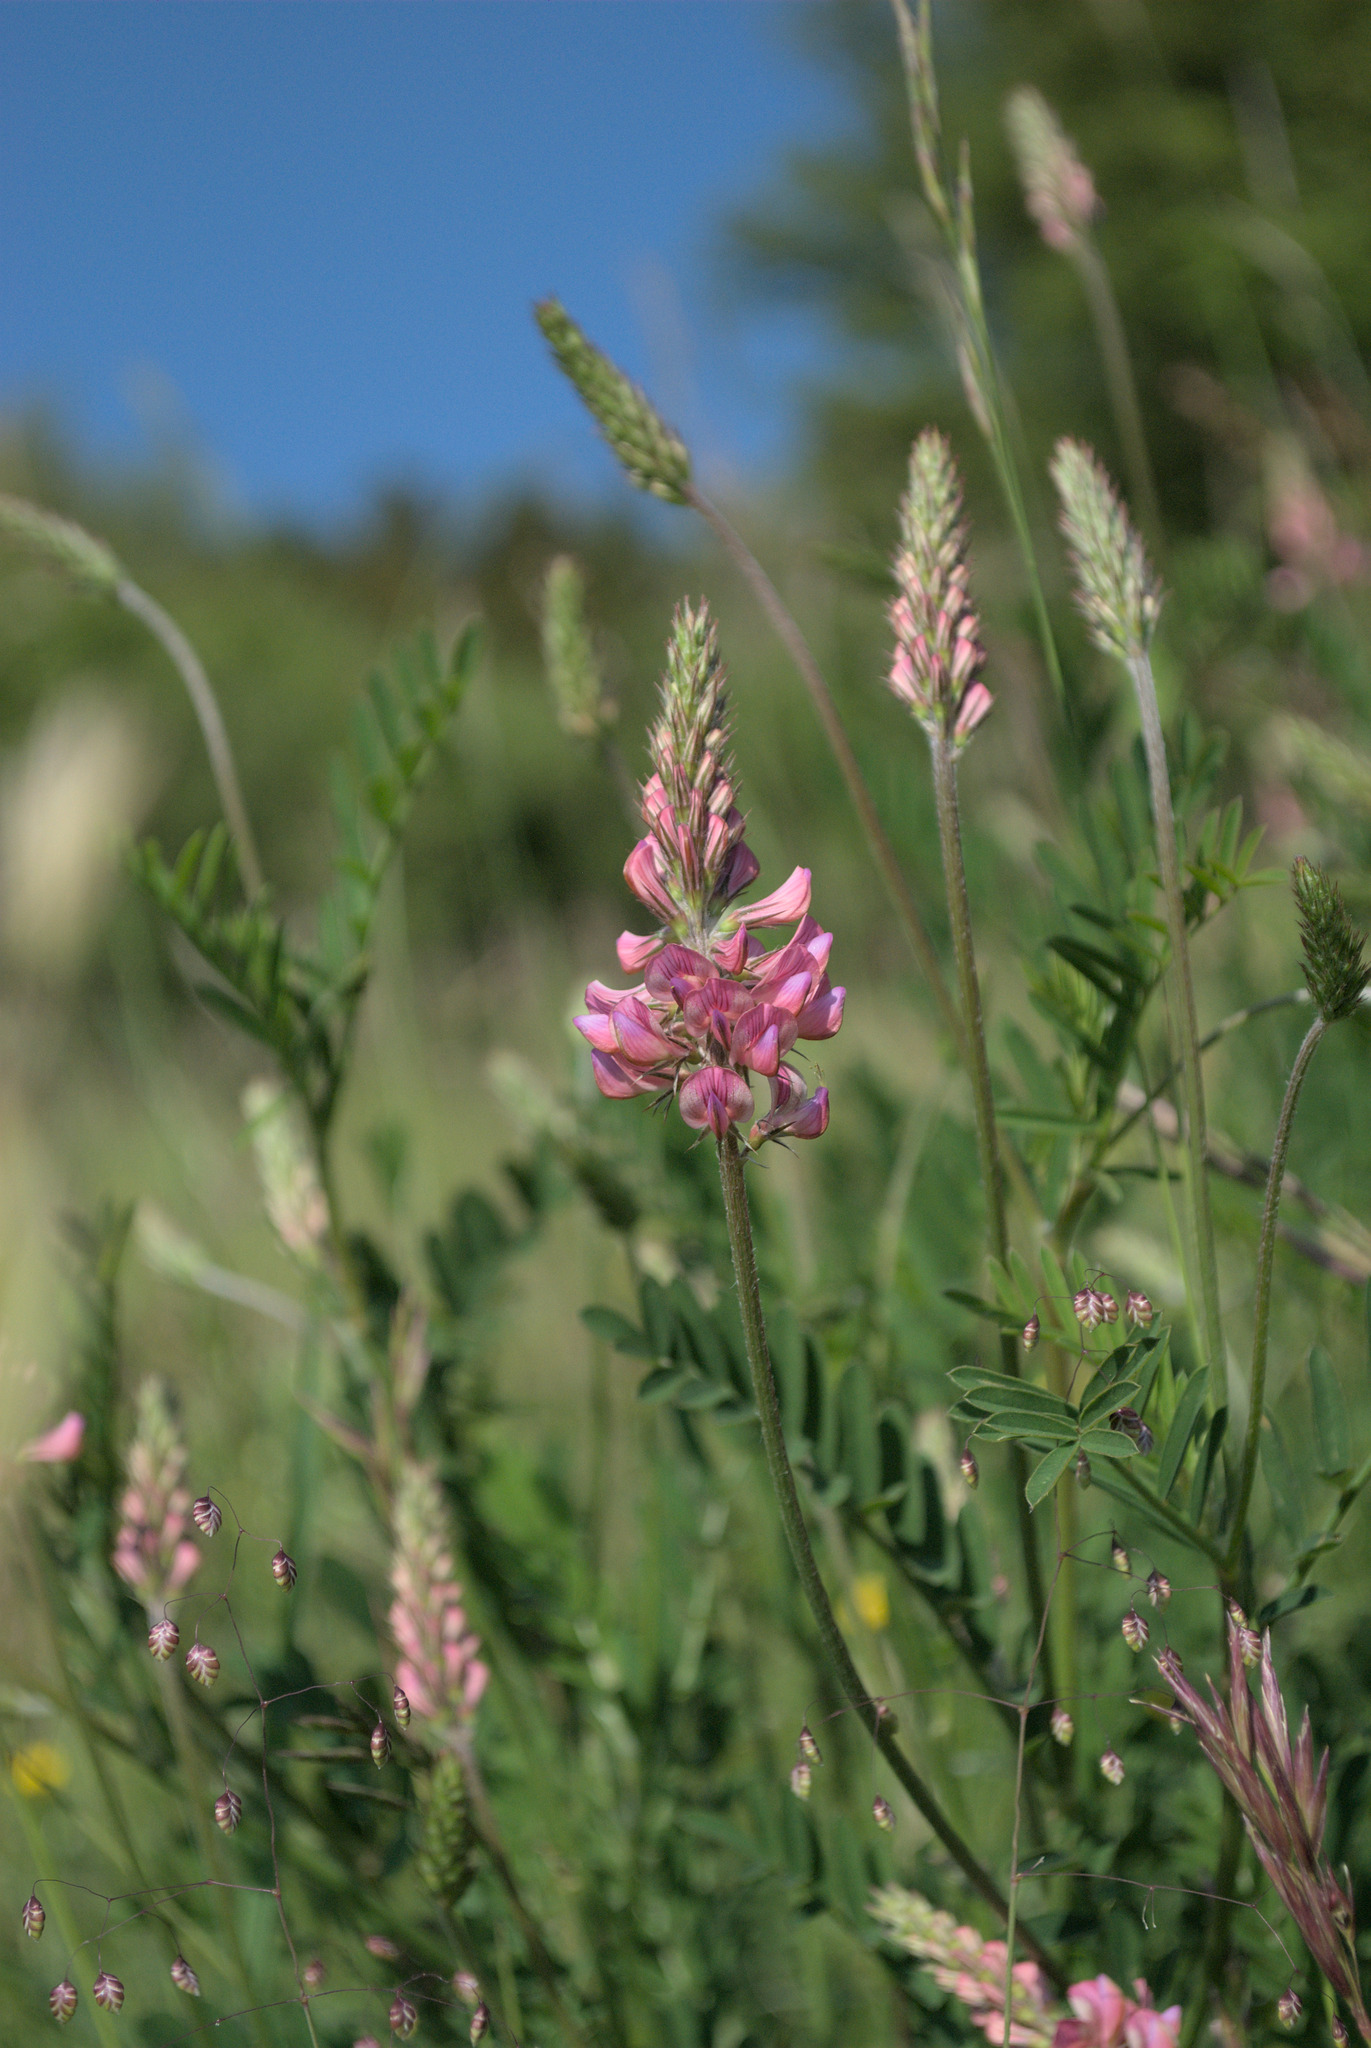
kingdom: Plantae
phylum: Tracheophyta
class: Magnoliopsida
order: Fabales
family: Fabaceae
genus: Onobrychis
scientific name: Onobrychis viciifolia
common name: Sainfoin
